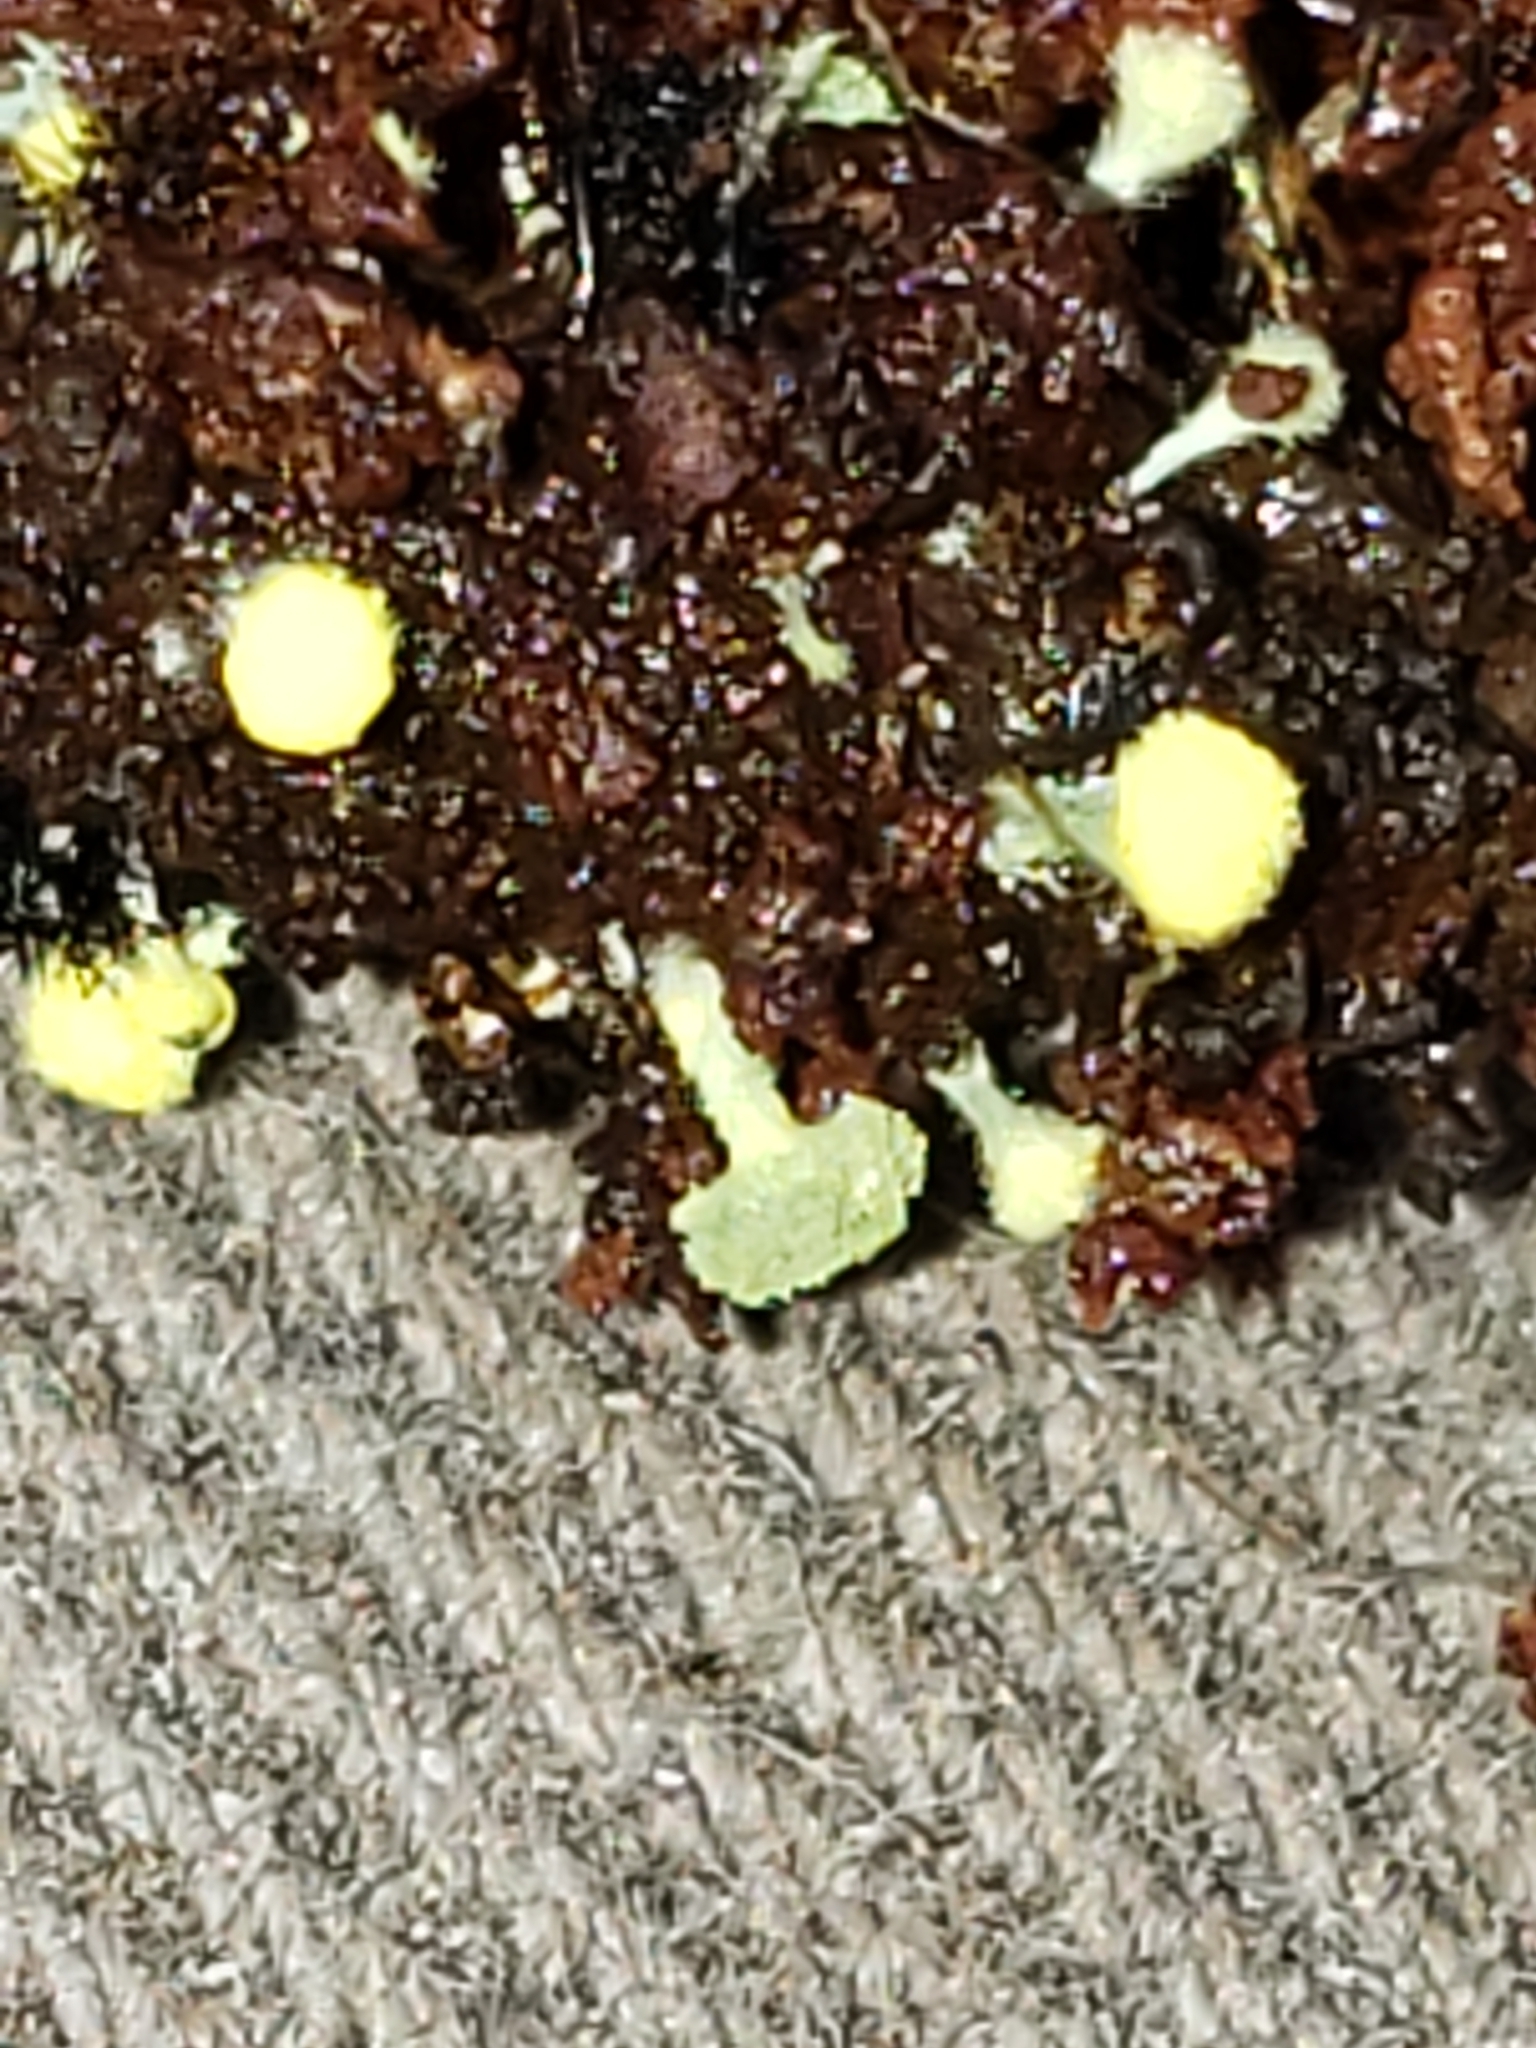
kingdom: Fungi
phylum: Ascomycota
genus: Mycosylva
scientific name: Mycosylva setosa
